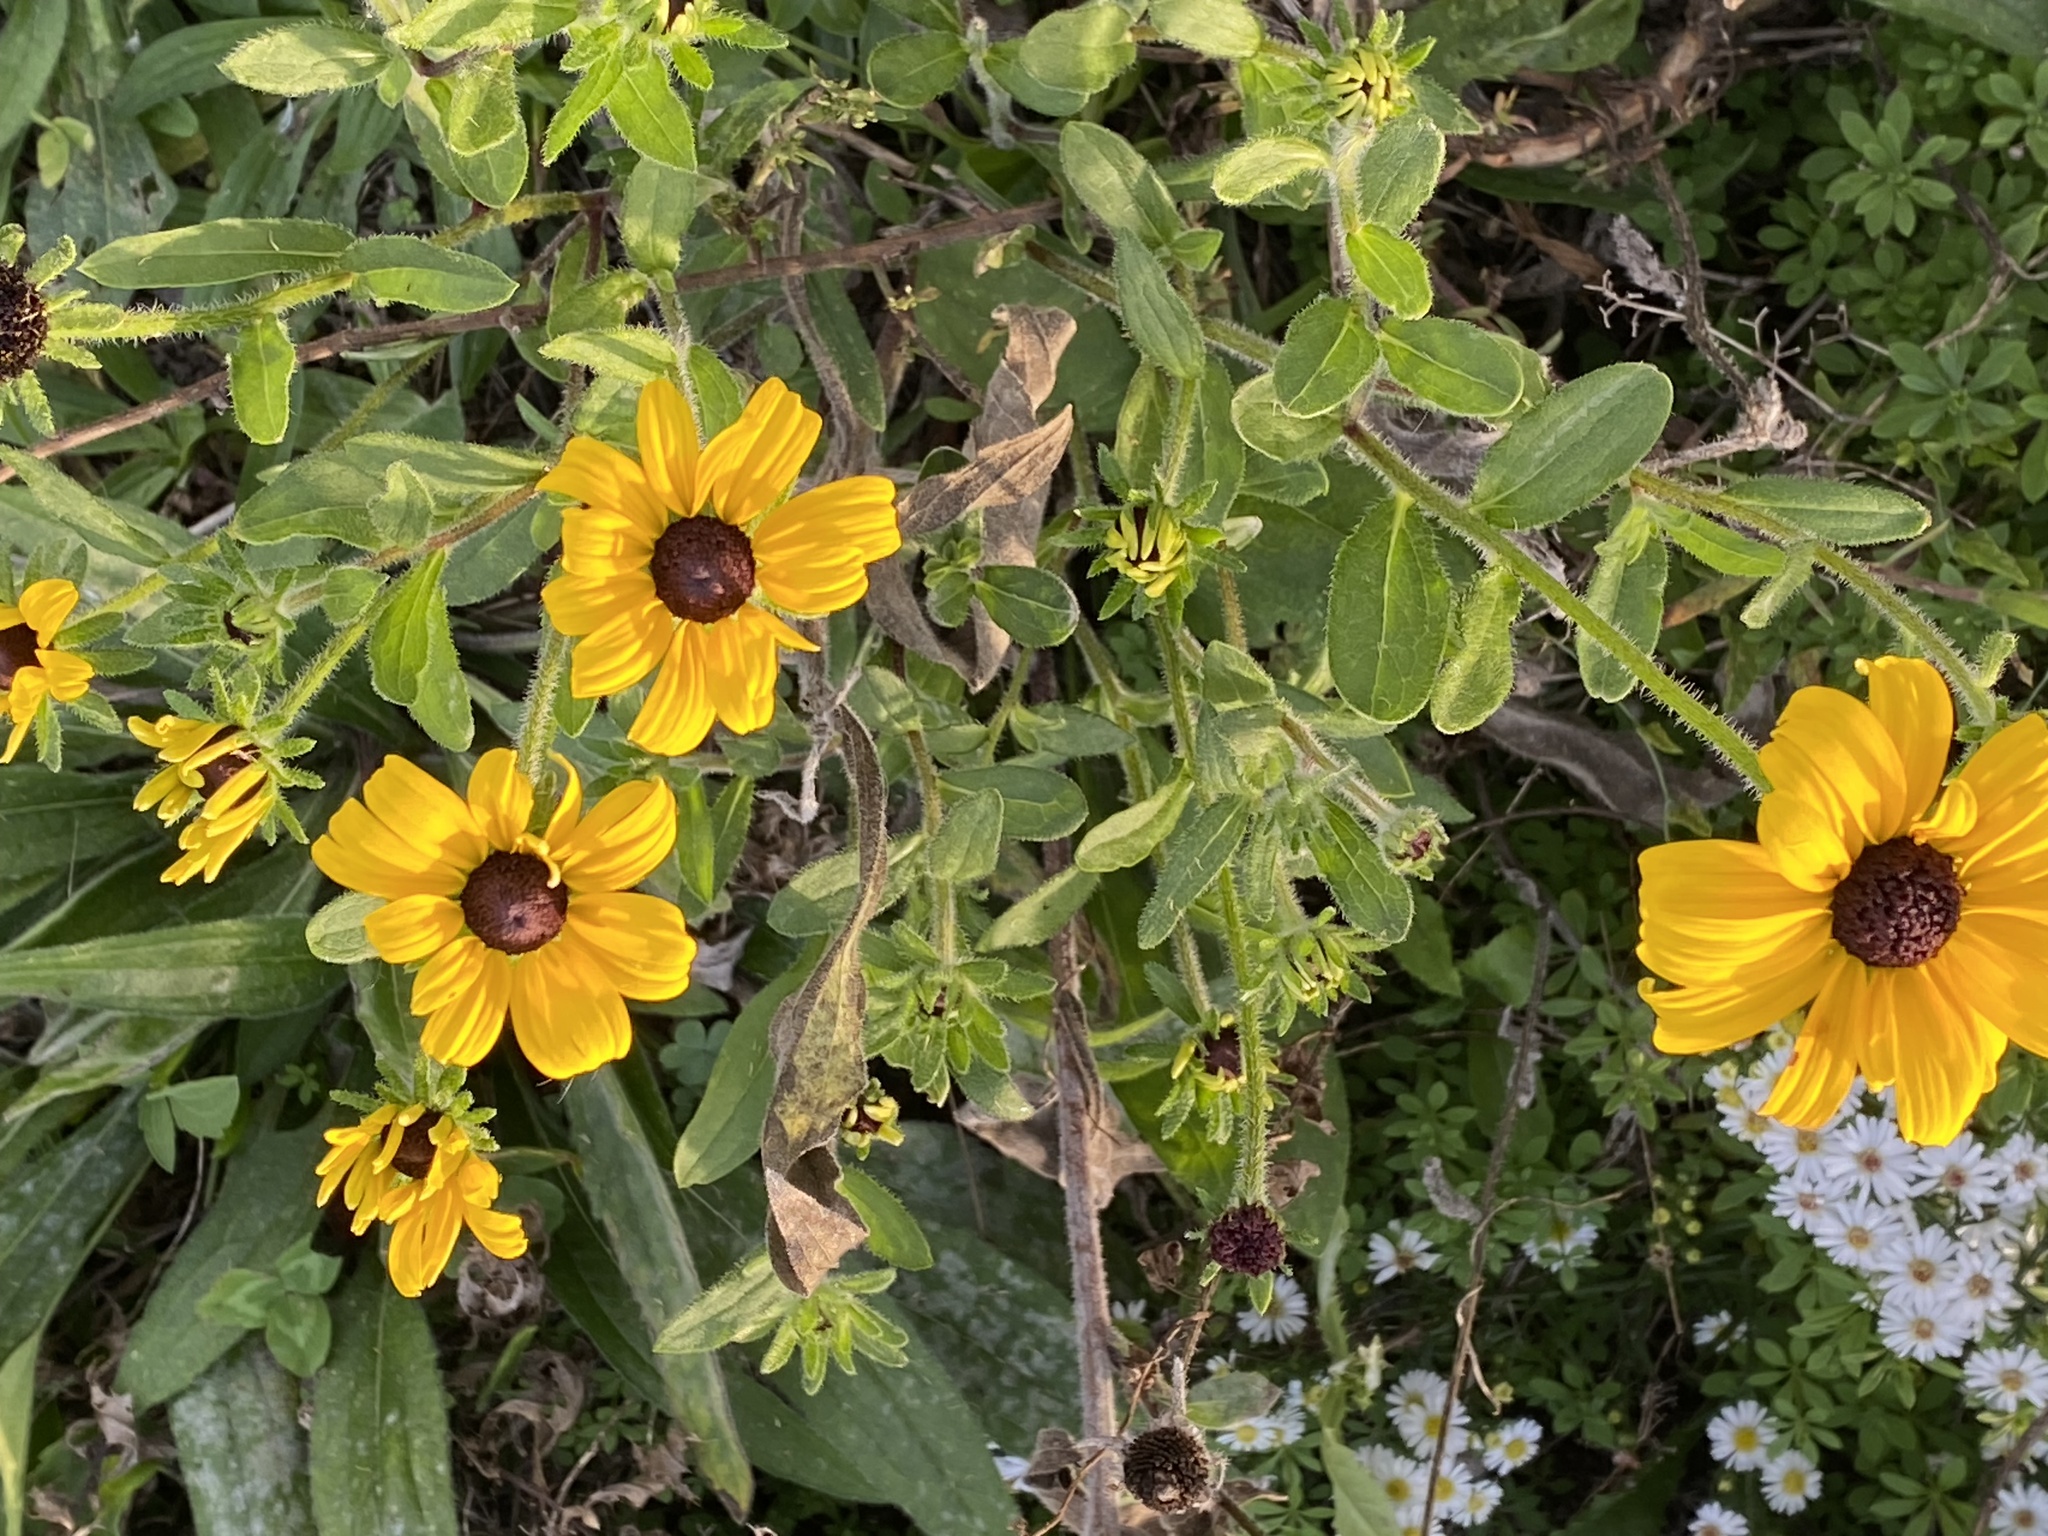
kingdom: Plantae
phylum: Tracheophyta
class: Magnoliopsida
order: Asterales
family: Asteraceae
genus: Rudbeckia
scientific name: Rudbeckia hirta
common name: Black-eyed-susan
